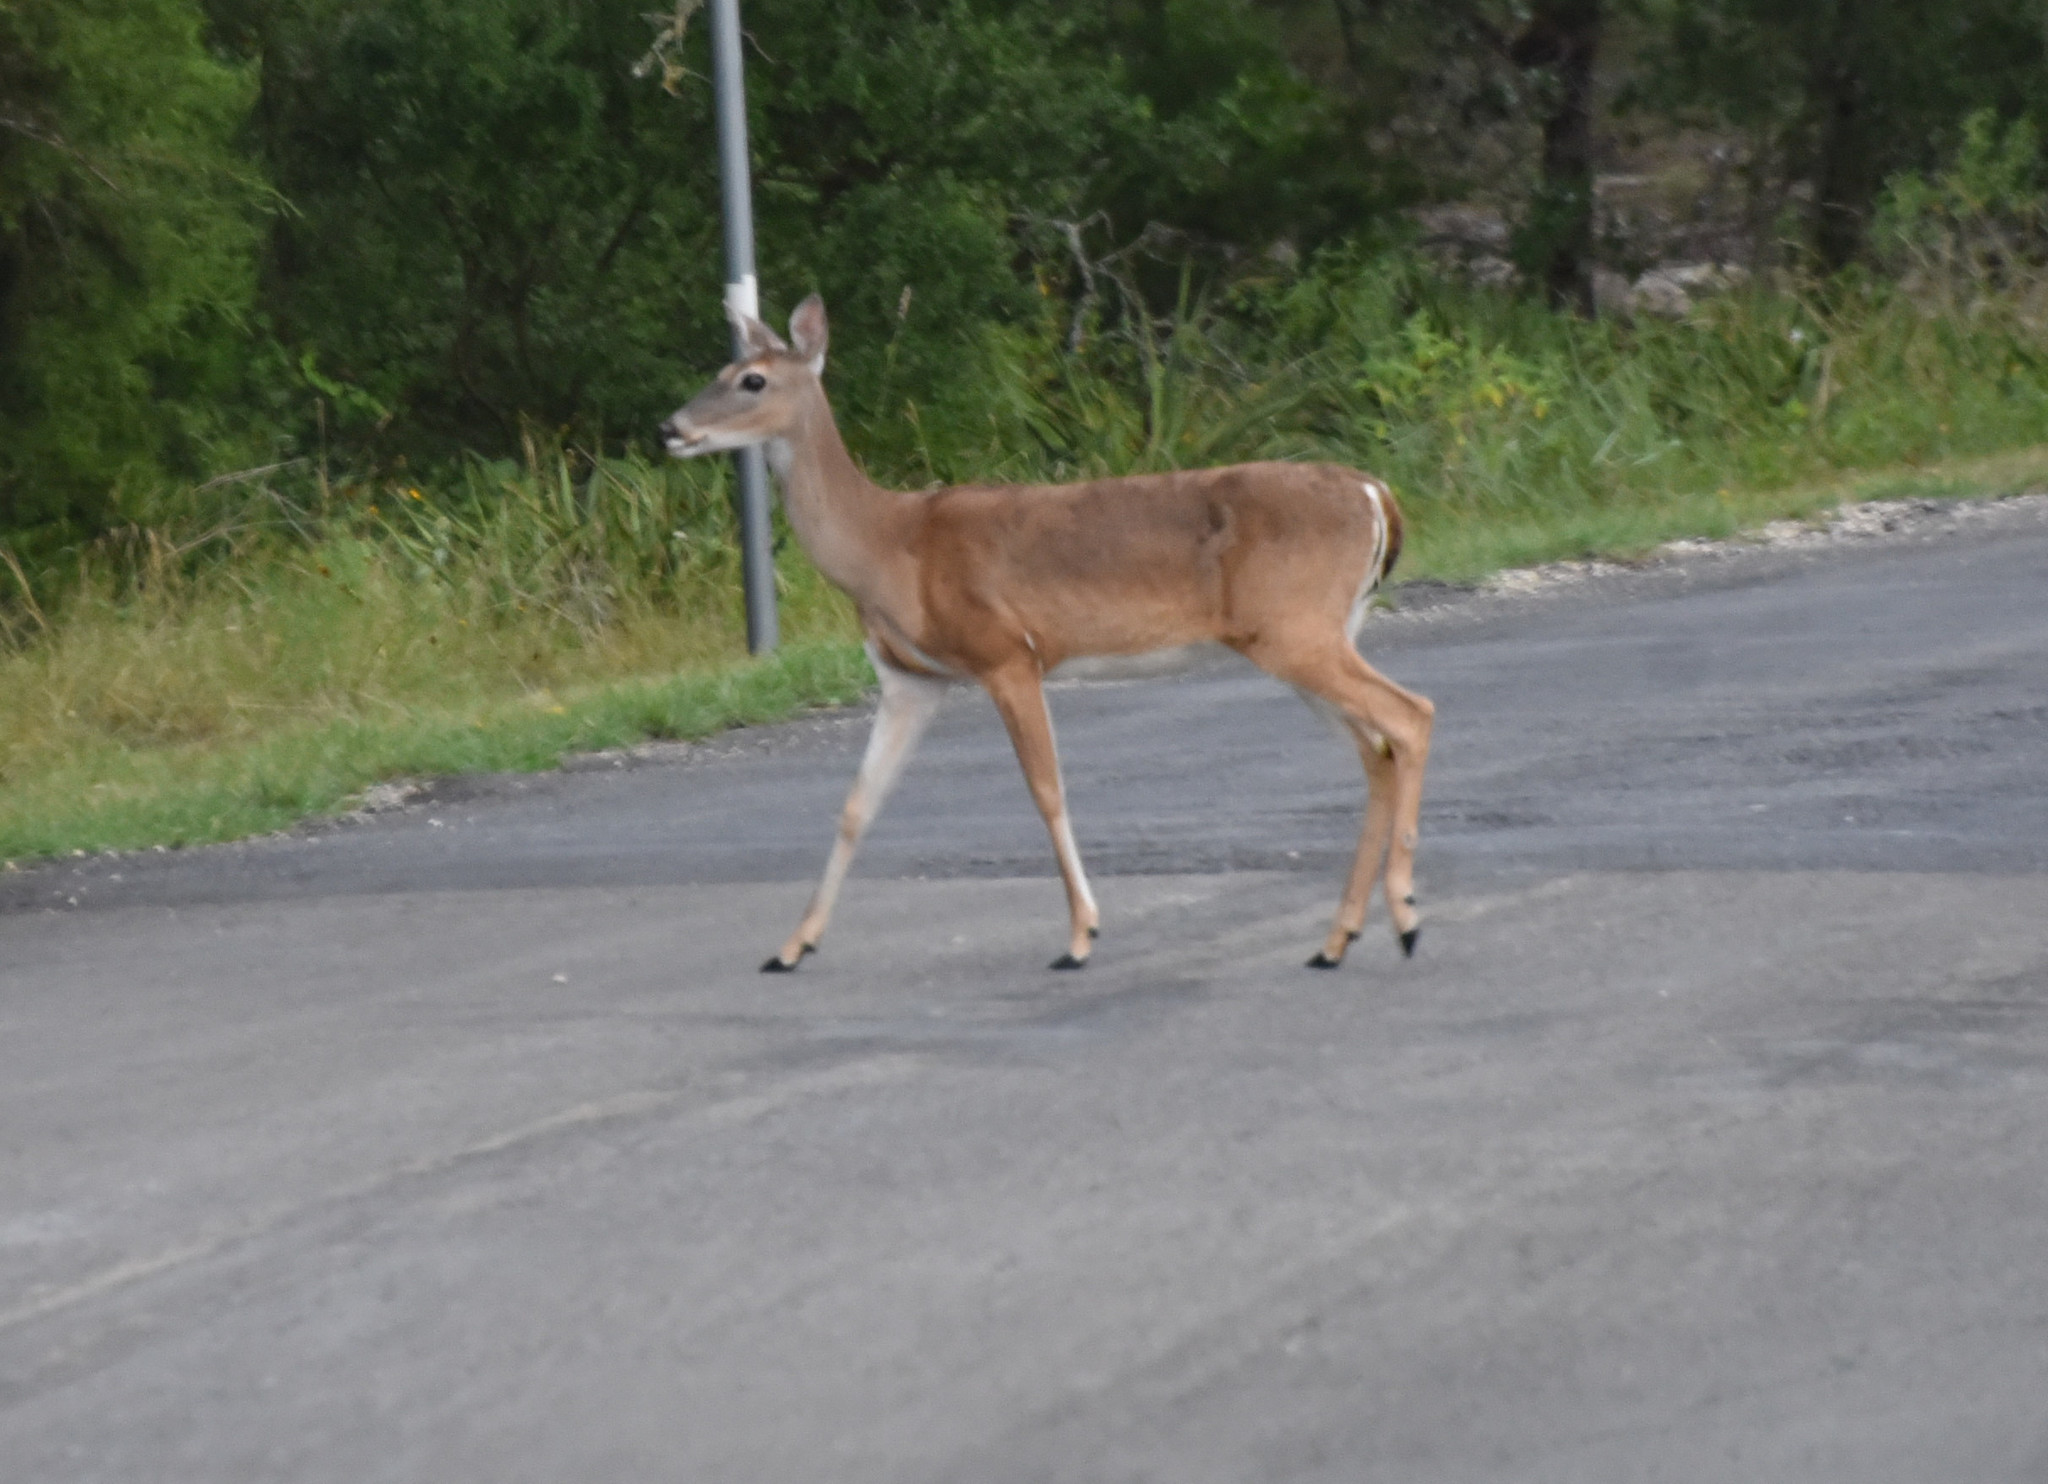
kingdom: Animalia
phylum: Chordata
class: Mammalia
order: Artiodactyla
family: Cervidae
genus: Odocoileus
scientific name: Odocoileus virginianus
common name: White-tailed deer
